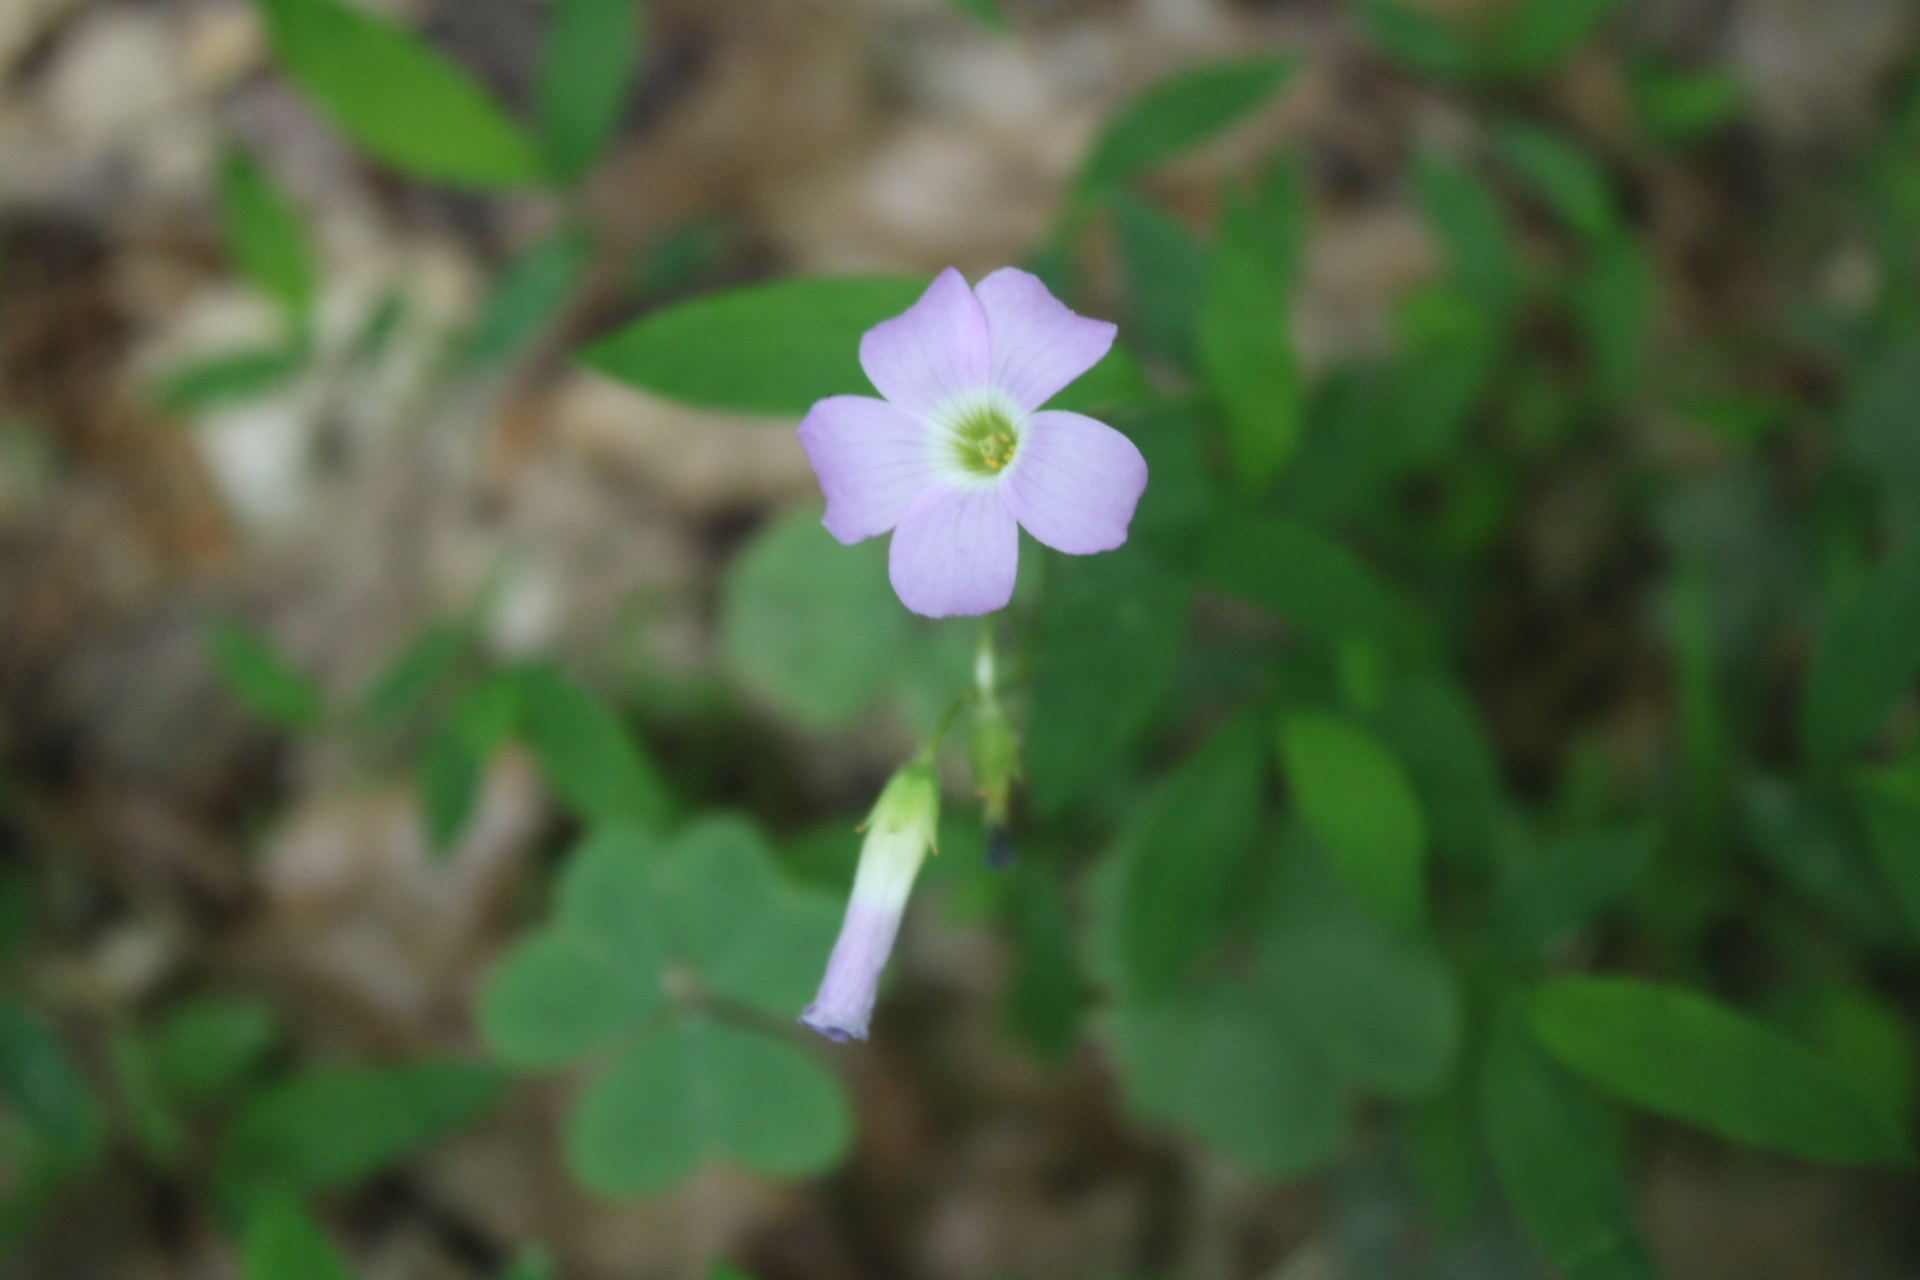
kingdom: Plantae
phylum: Tracheophyta
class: Magnoliopsida
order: Oxalidales
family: Oxalidaceae
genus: Oxalis
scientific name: Oxalis violacea
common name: Violet wood-sorrel
